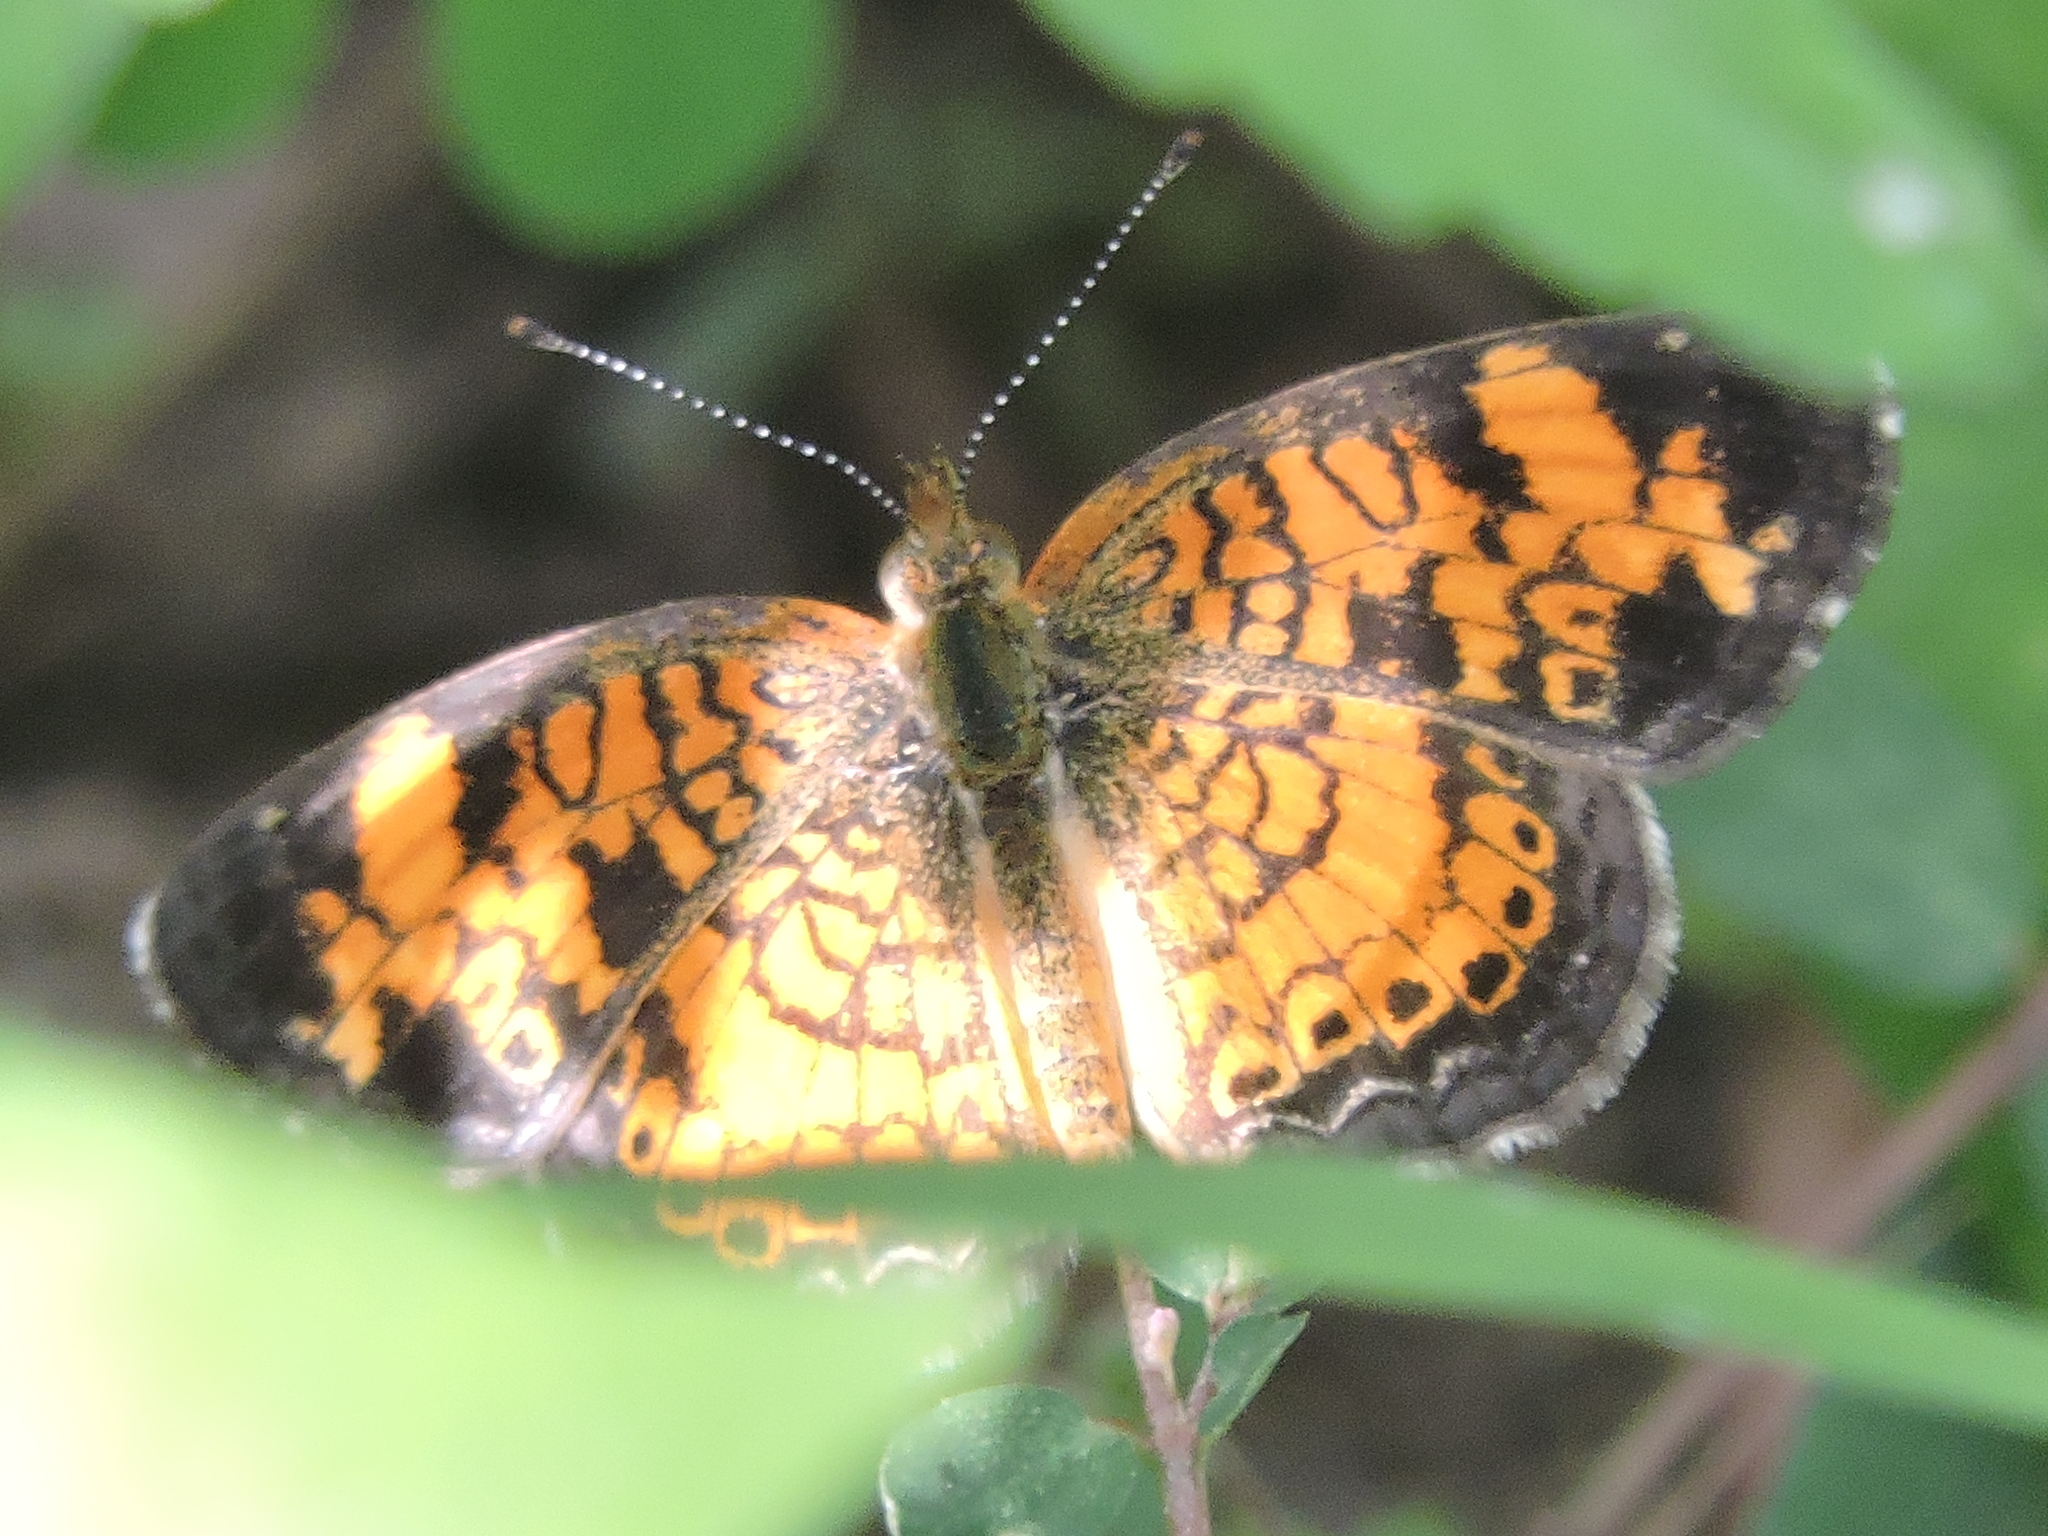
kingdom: Animalia
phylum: Arthropoda
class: Insecta
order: Lepidoptera
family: Nymphalidae
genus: Phyciodes
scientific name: Phyciodes tharos
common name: Pearl crescent
